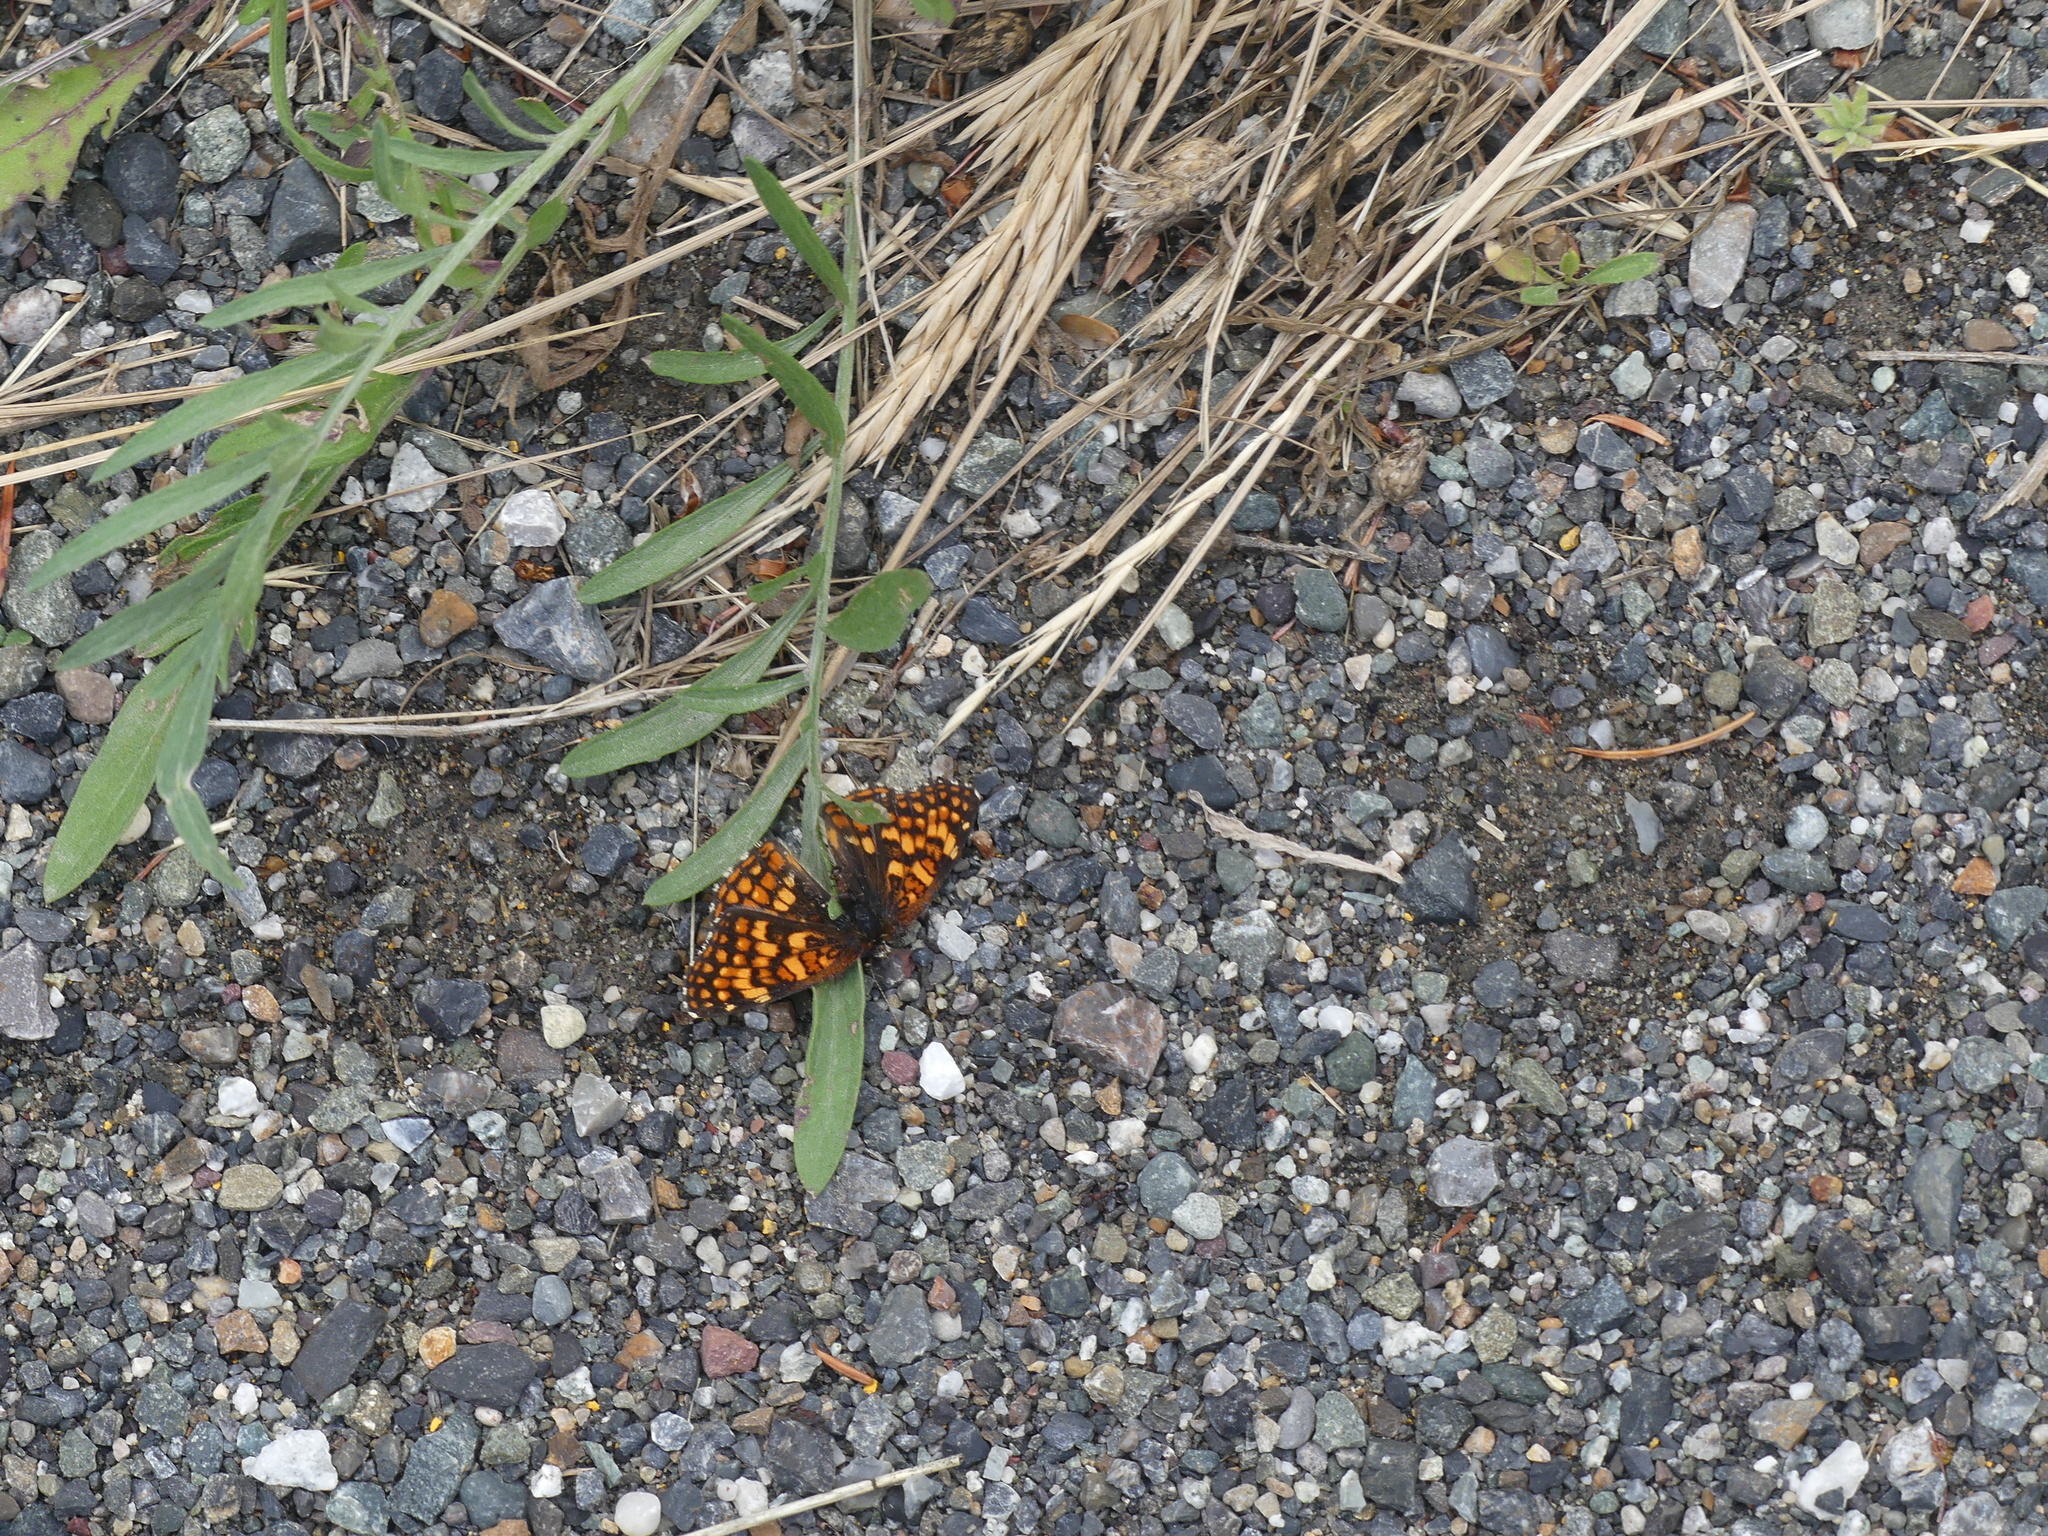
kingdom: Animalia
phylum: Arthropoda
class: Insecta
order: Lepidoptera
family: Nymphalidae
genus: Chlosyne
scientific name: Chlosyne palla
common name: Northern checkerspot
